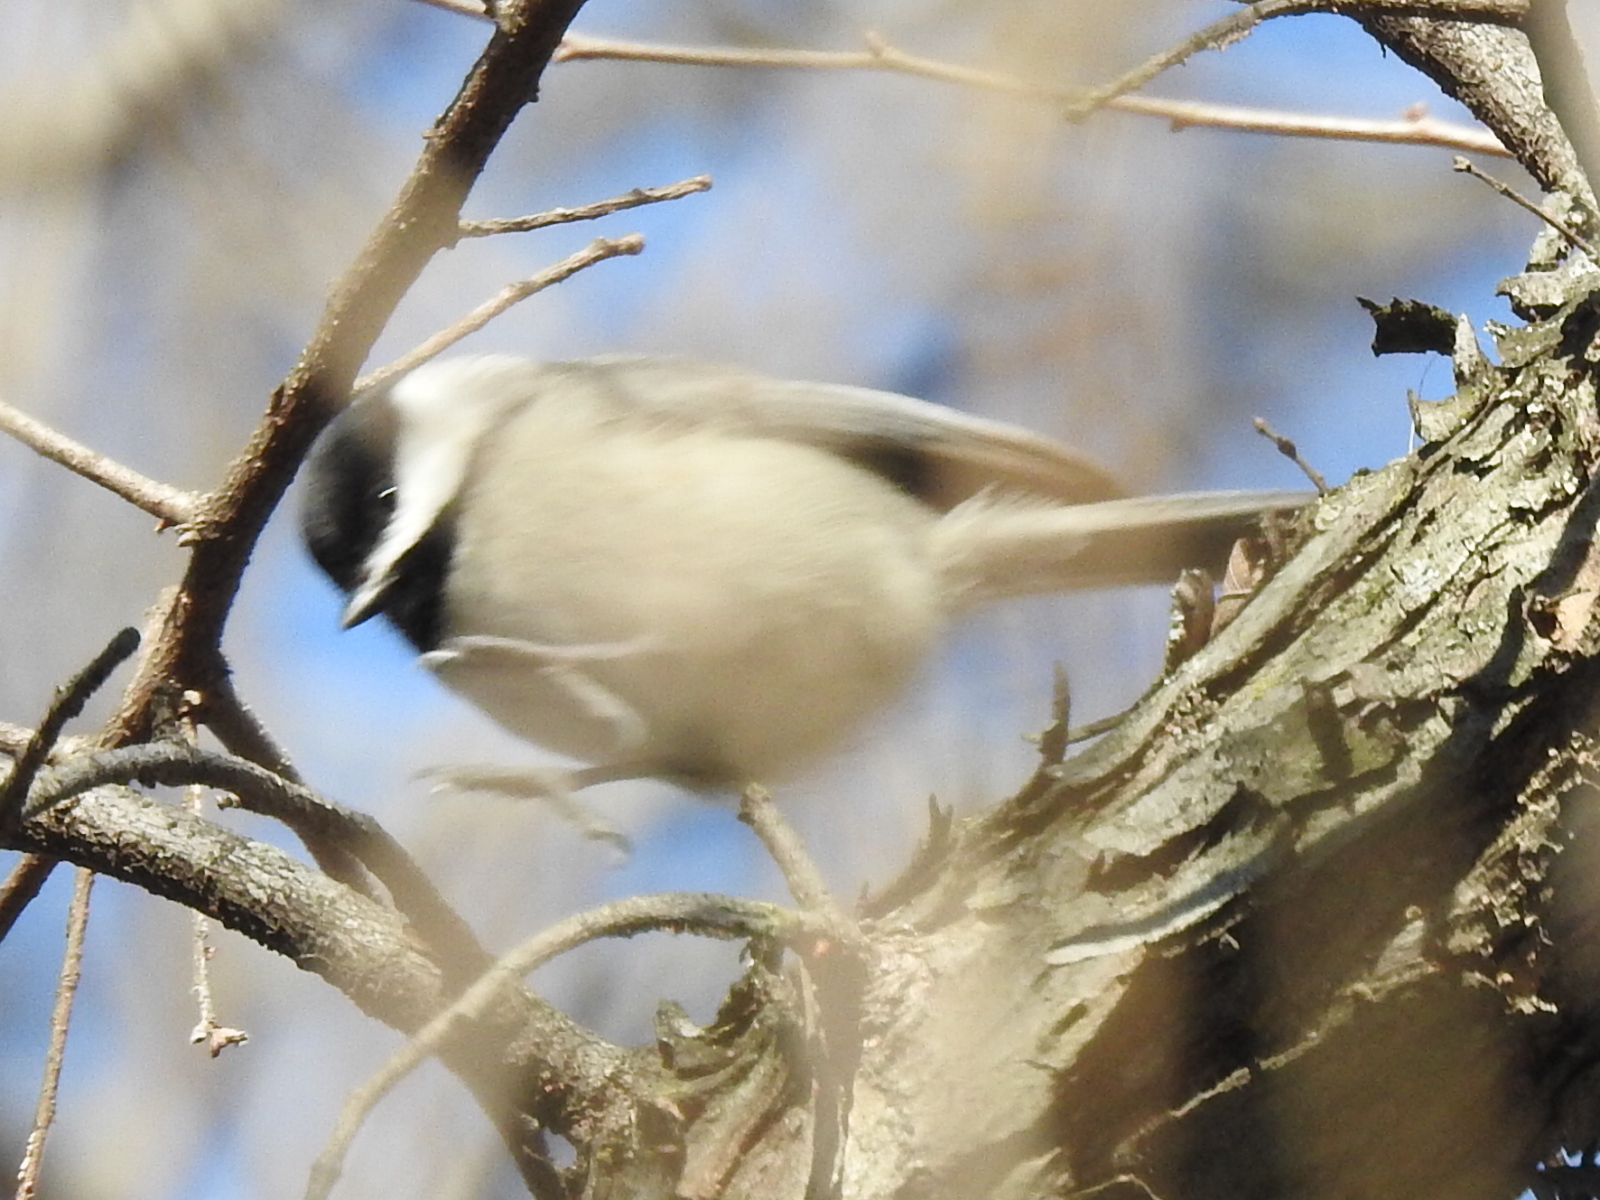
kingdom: Animalia
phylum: Chordata
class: Aves
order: Passeriformes
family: Paridae
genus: Poecile
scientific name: Poecile carolinensis
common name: Carolina chickadee
